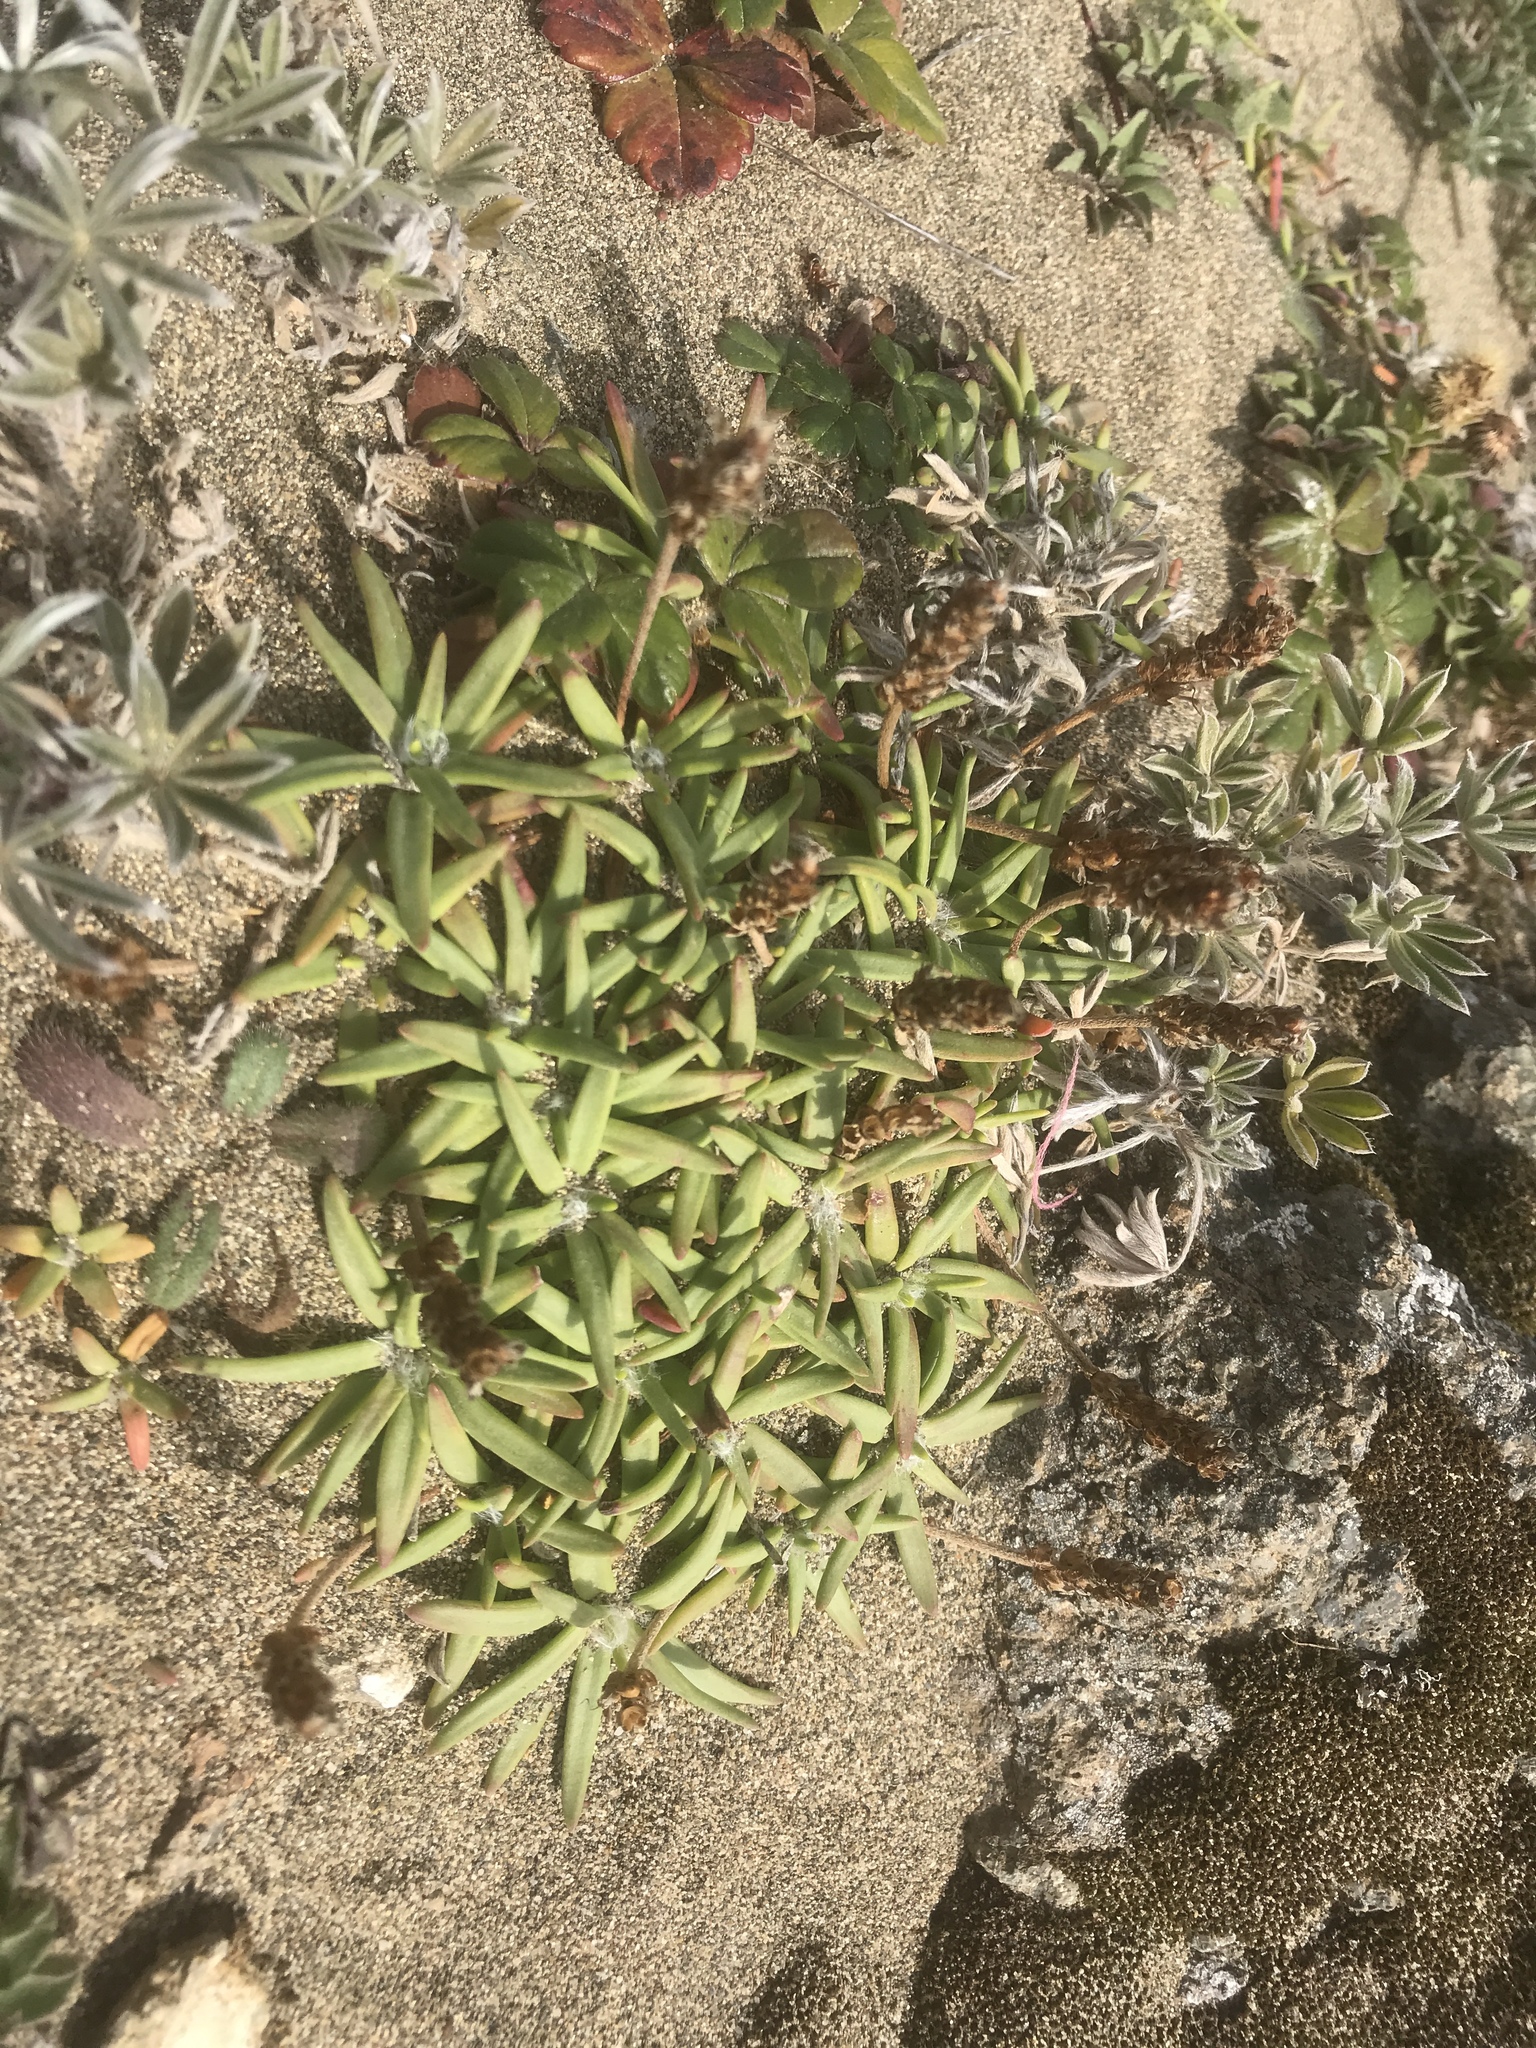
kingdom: Plantae
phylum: Tracheophyta
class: Magnoliopsida
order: Lamiales
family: Plantaginaceae
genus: Plantago
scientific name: Plantago maritima
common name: Sea plantain
